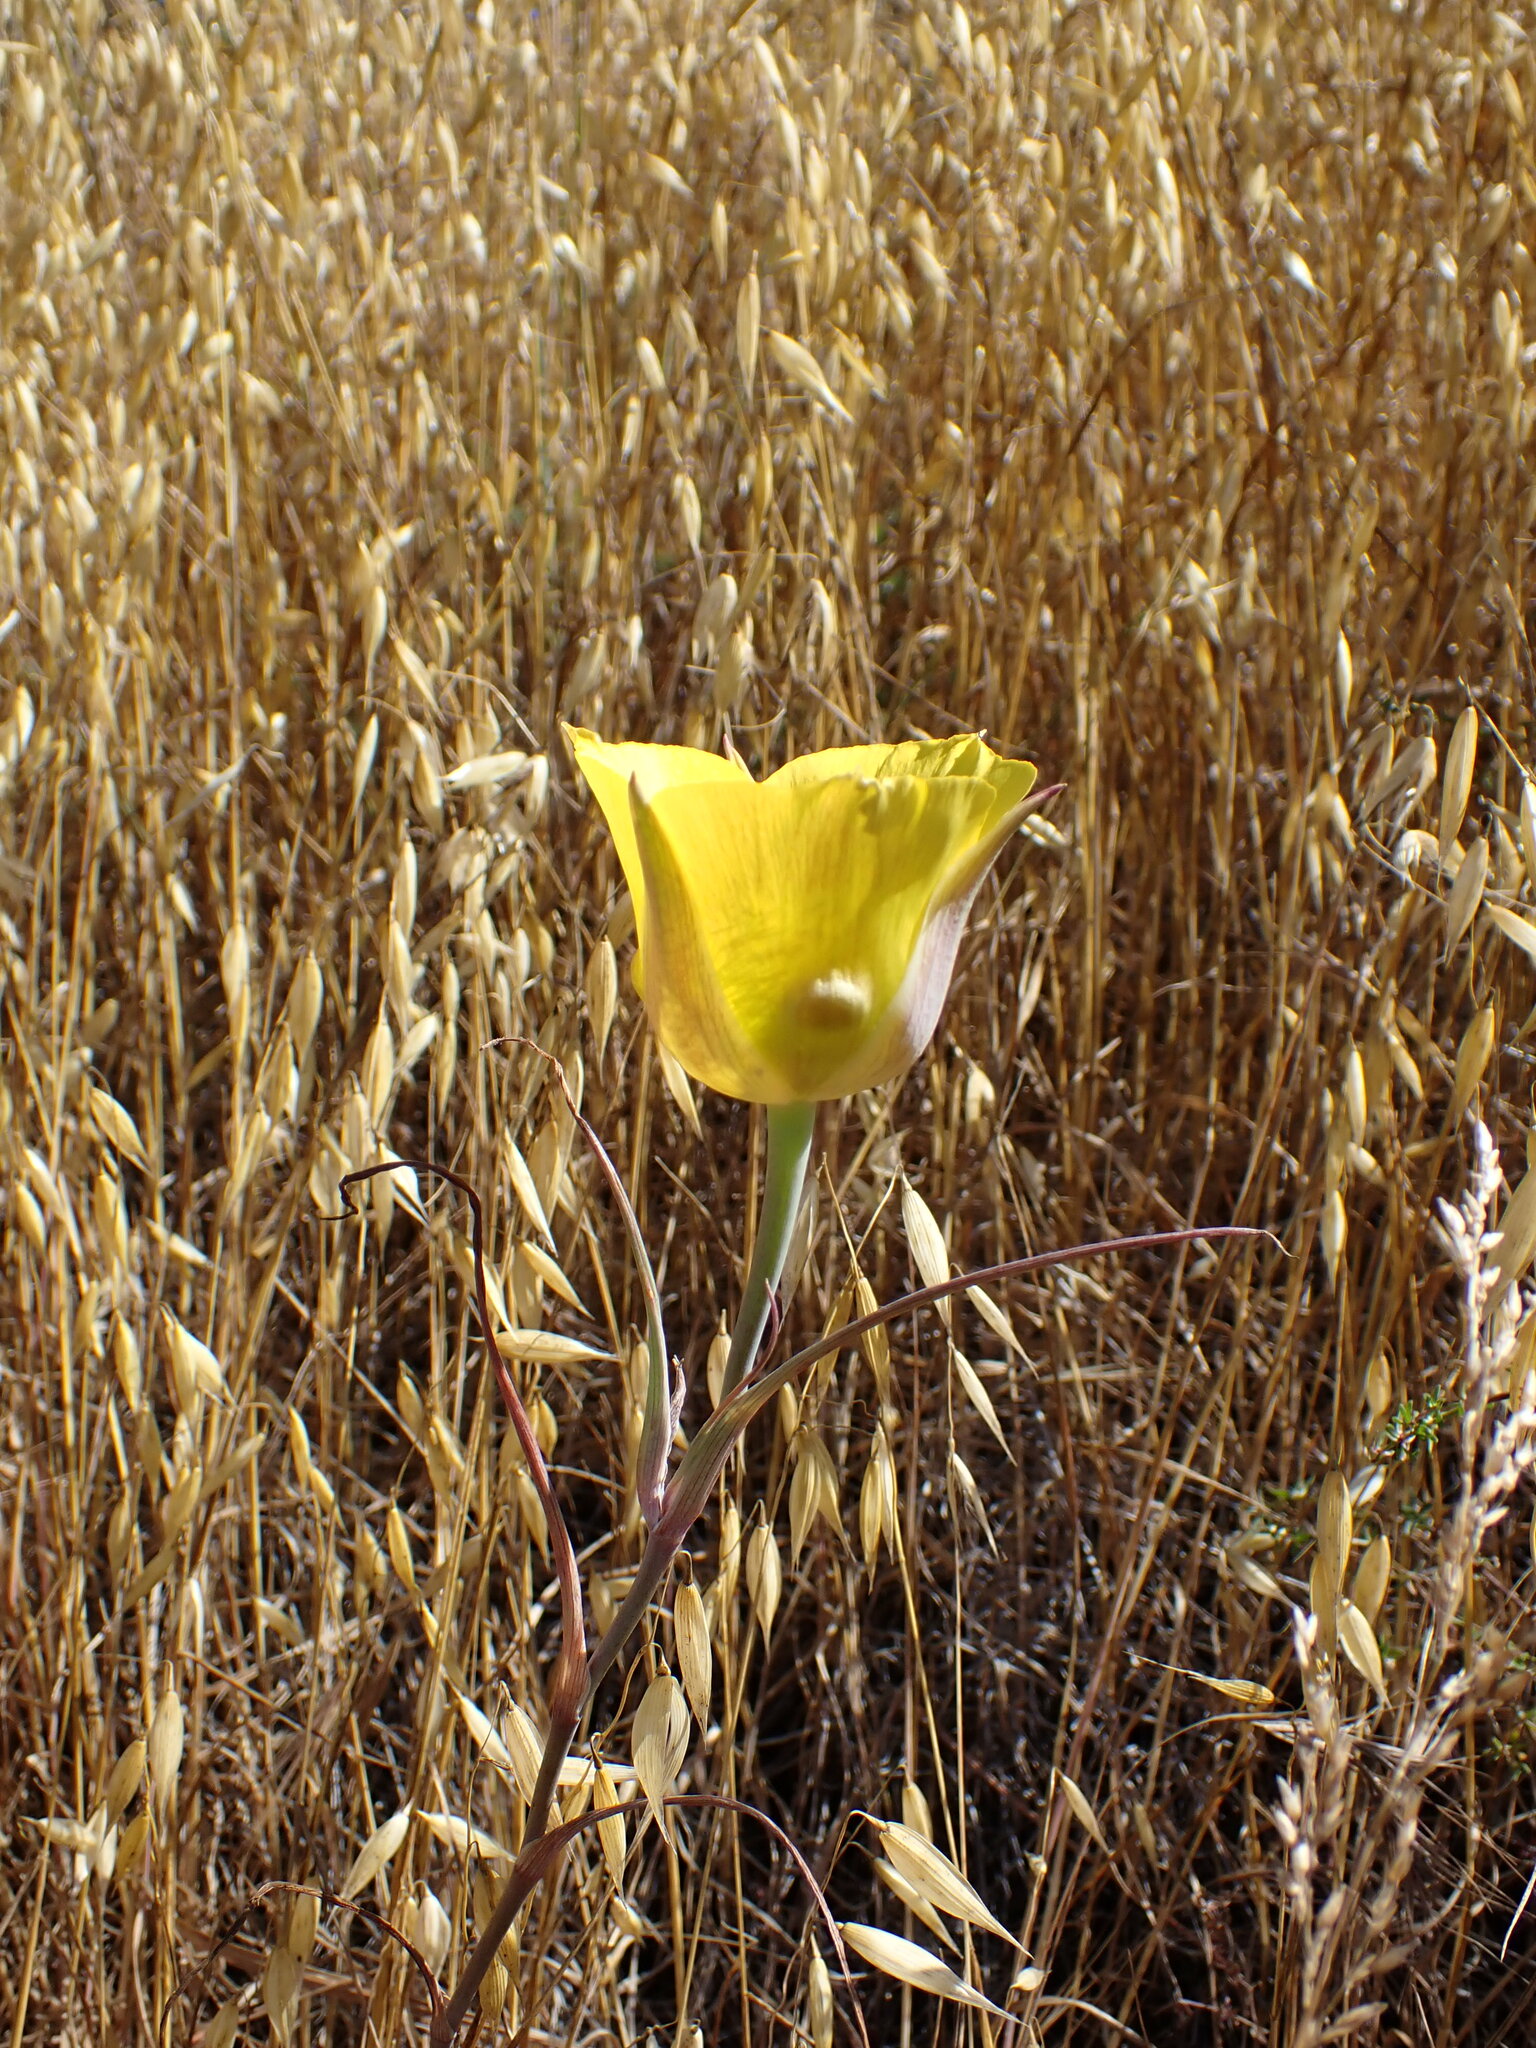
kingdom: Plantae
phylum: Tracheophyta
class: Liliopsida
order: Liliales
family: Liliaceae
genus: Calochortus
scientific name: Calochortus clavatus
